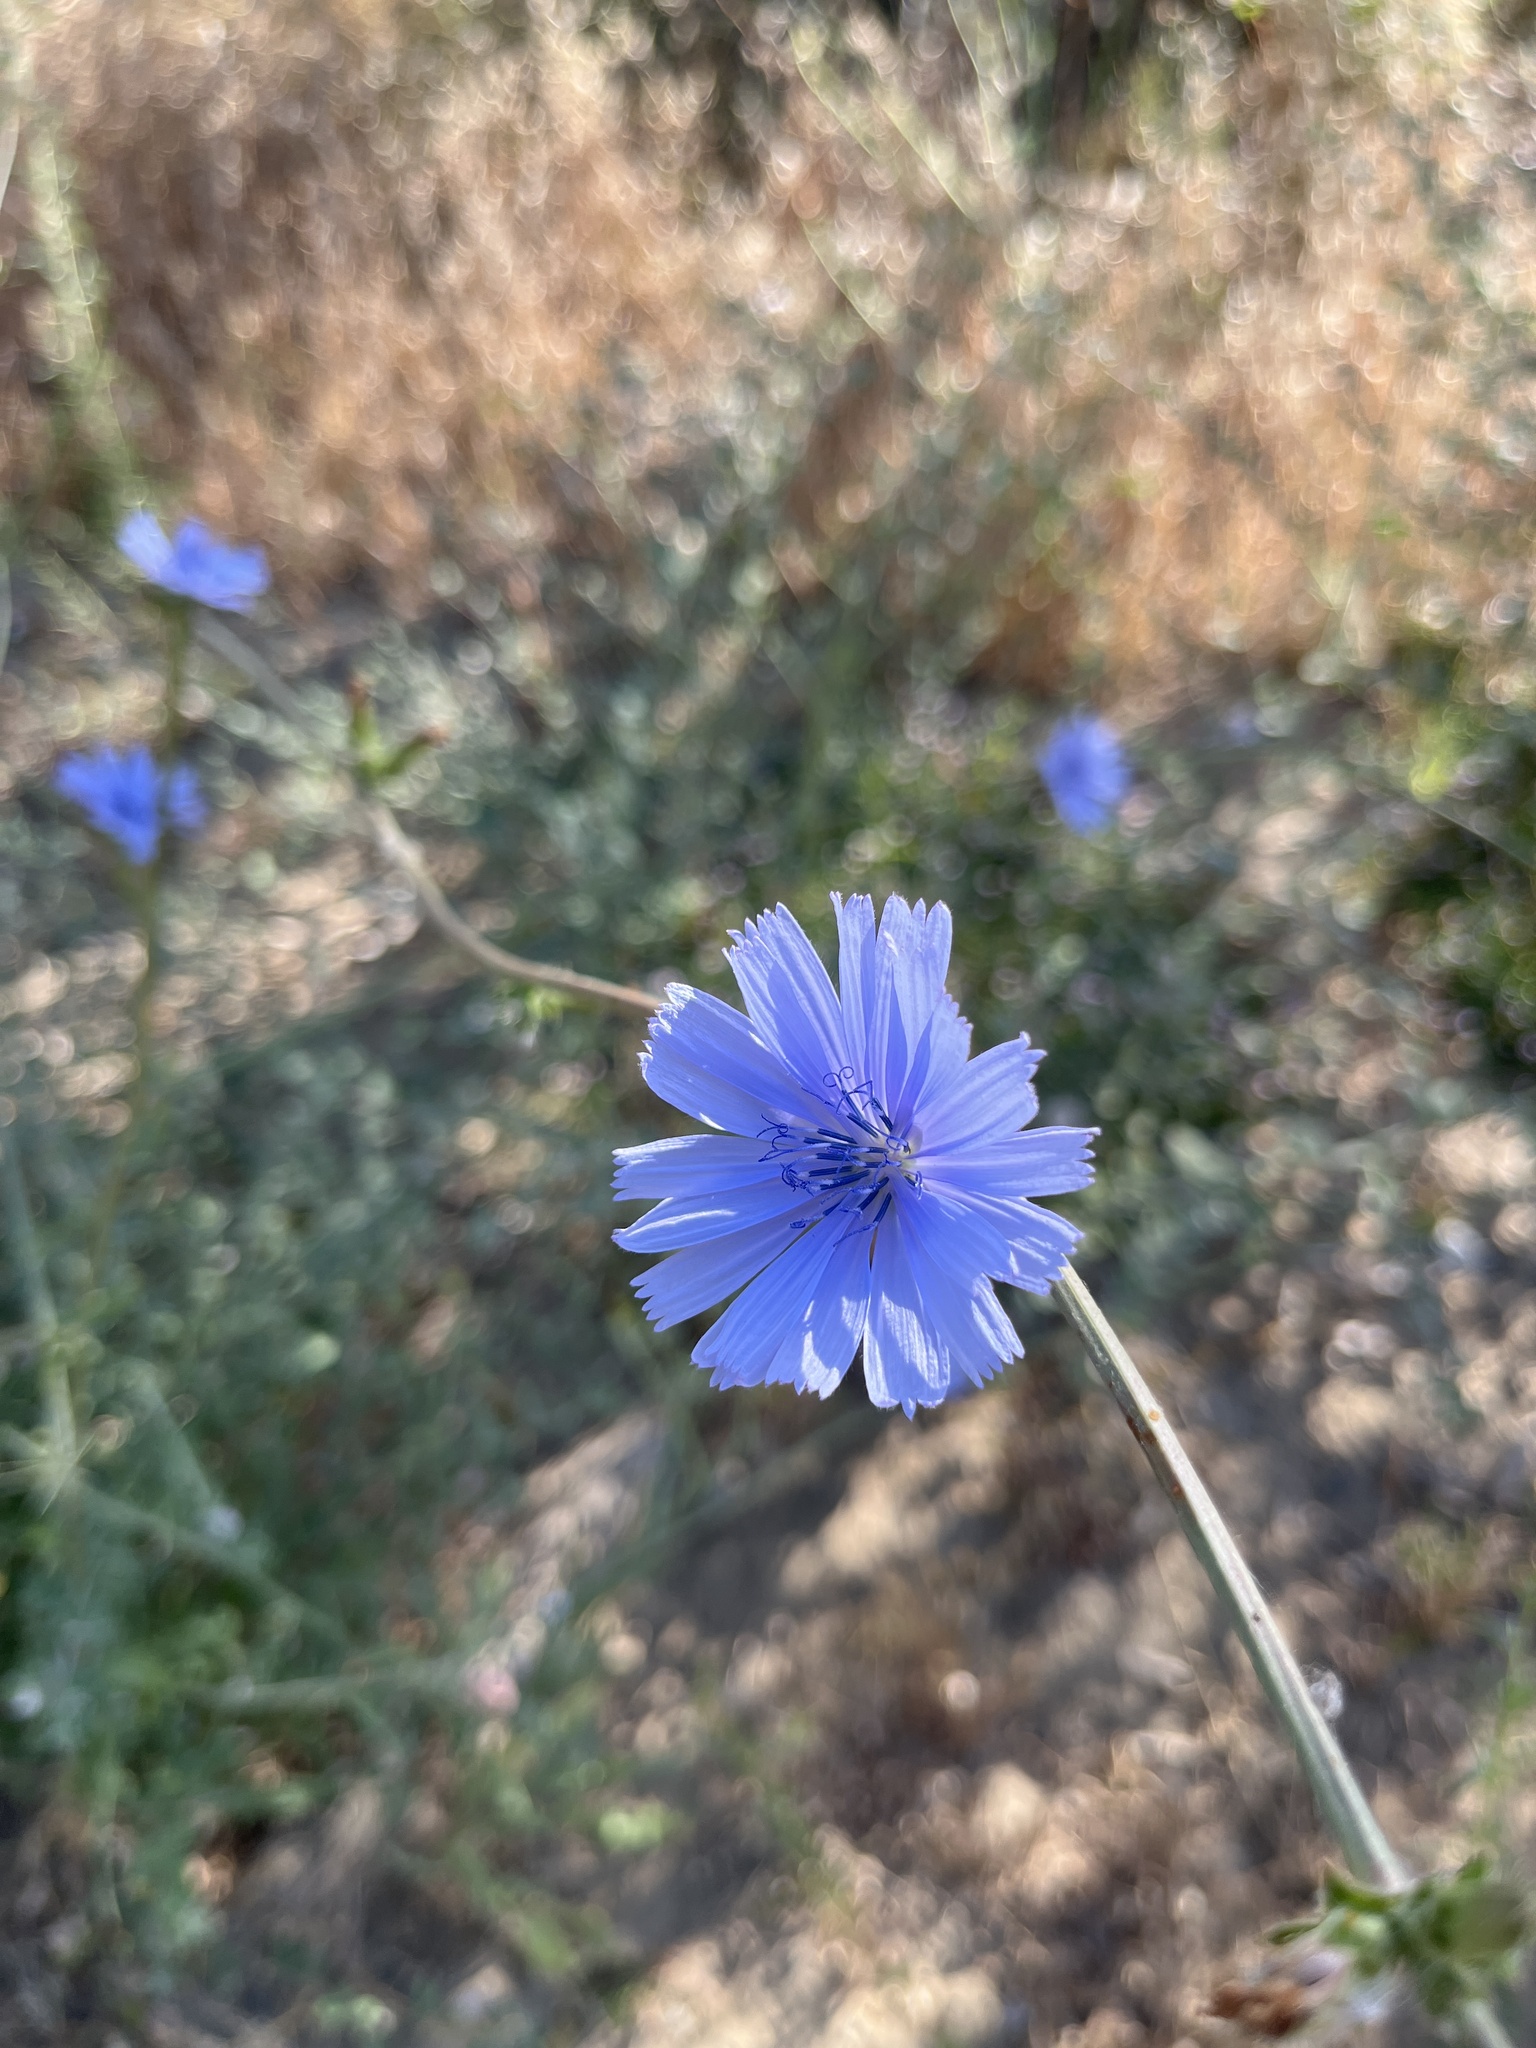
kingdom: Plantae
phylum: Tracheophyta
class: Magnoliopsida
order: Asterales
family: Asteraceae
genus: Cichorium
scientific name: Cichorium intybus
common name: Chicory
